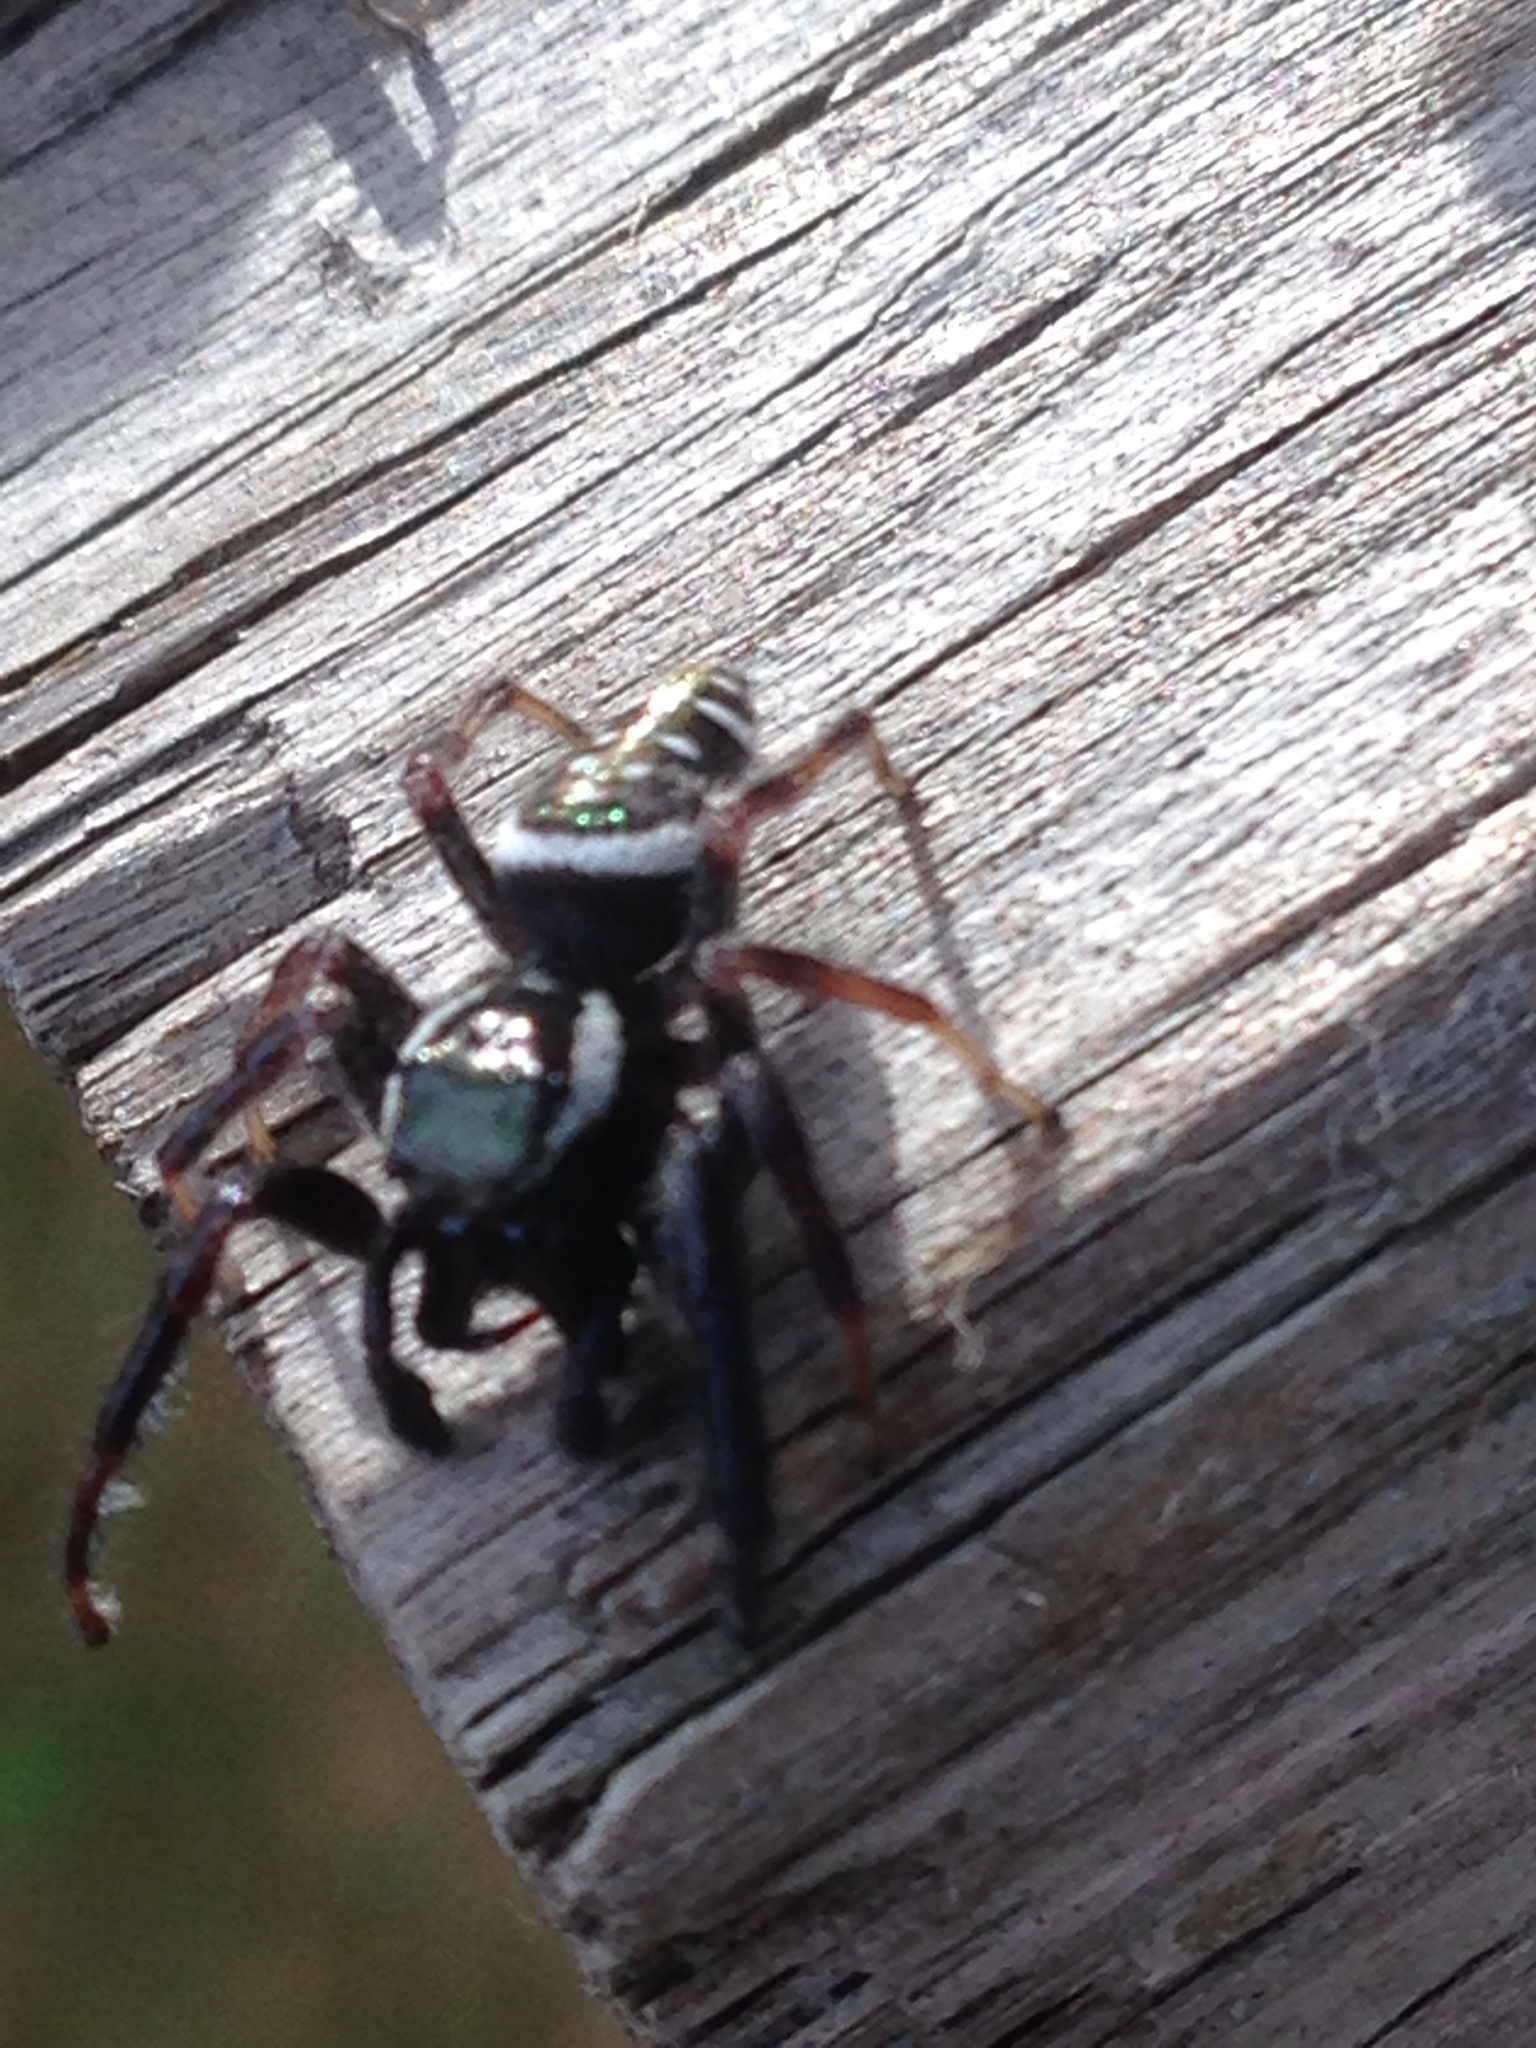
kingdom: Animalia
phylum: Arthropoda
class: Arachnida
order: Araneae
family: Salticidae
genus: Paraphidippus
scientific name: Paraphidippus aurantius
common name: Jumping spiders
